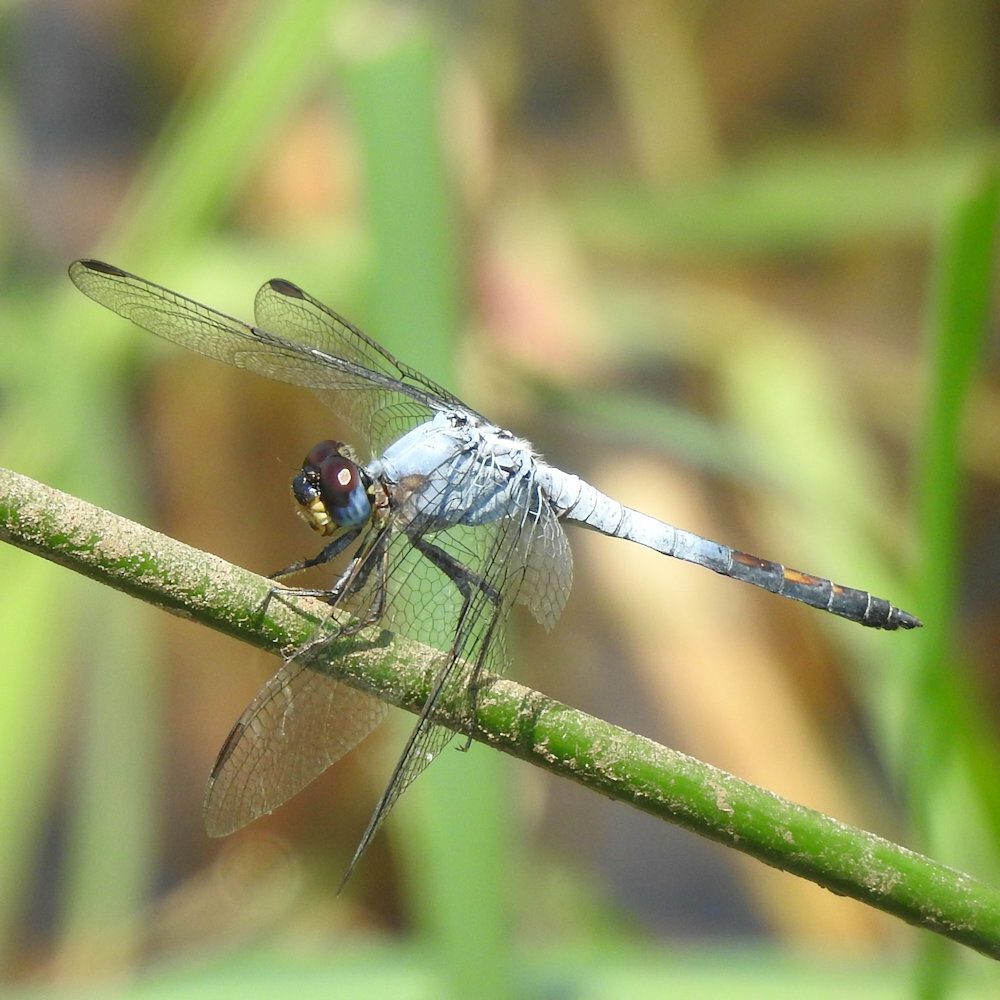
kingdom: Animalia
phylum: Arthropoda
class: Insecta
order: Odonata
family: Libellulidae
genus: Nesciothemis
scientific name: Nesciothemis farinosa
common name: Eastern blacktail
